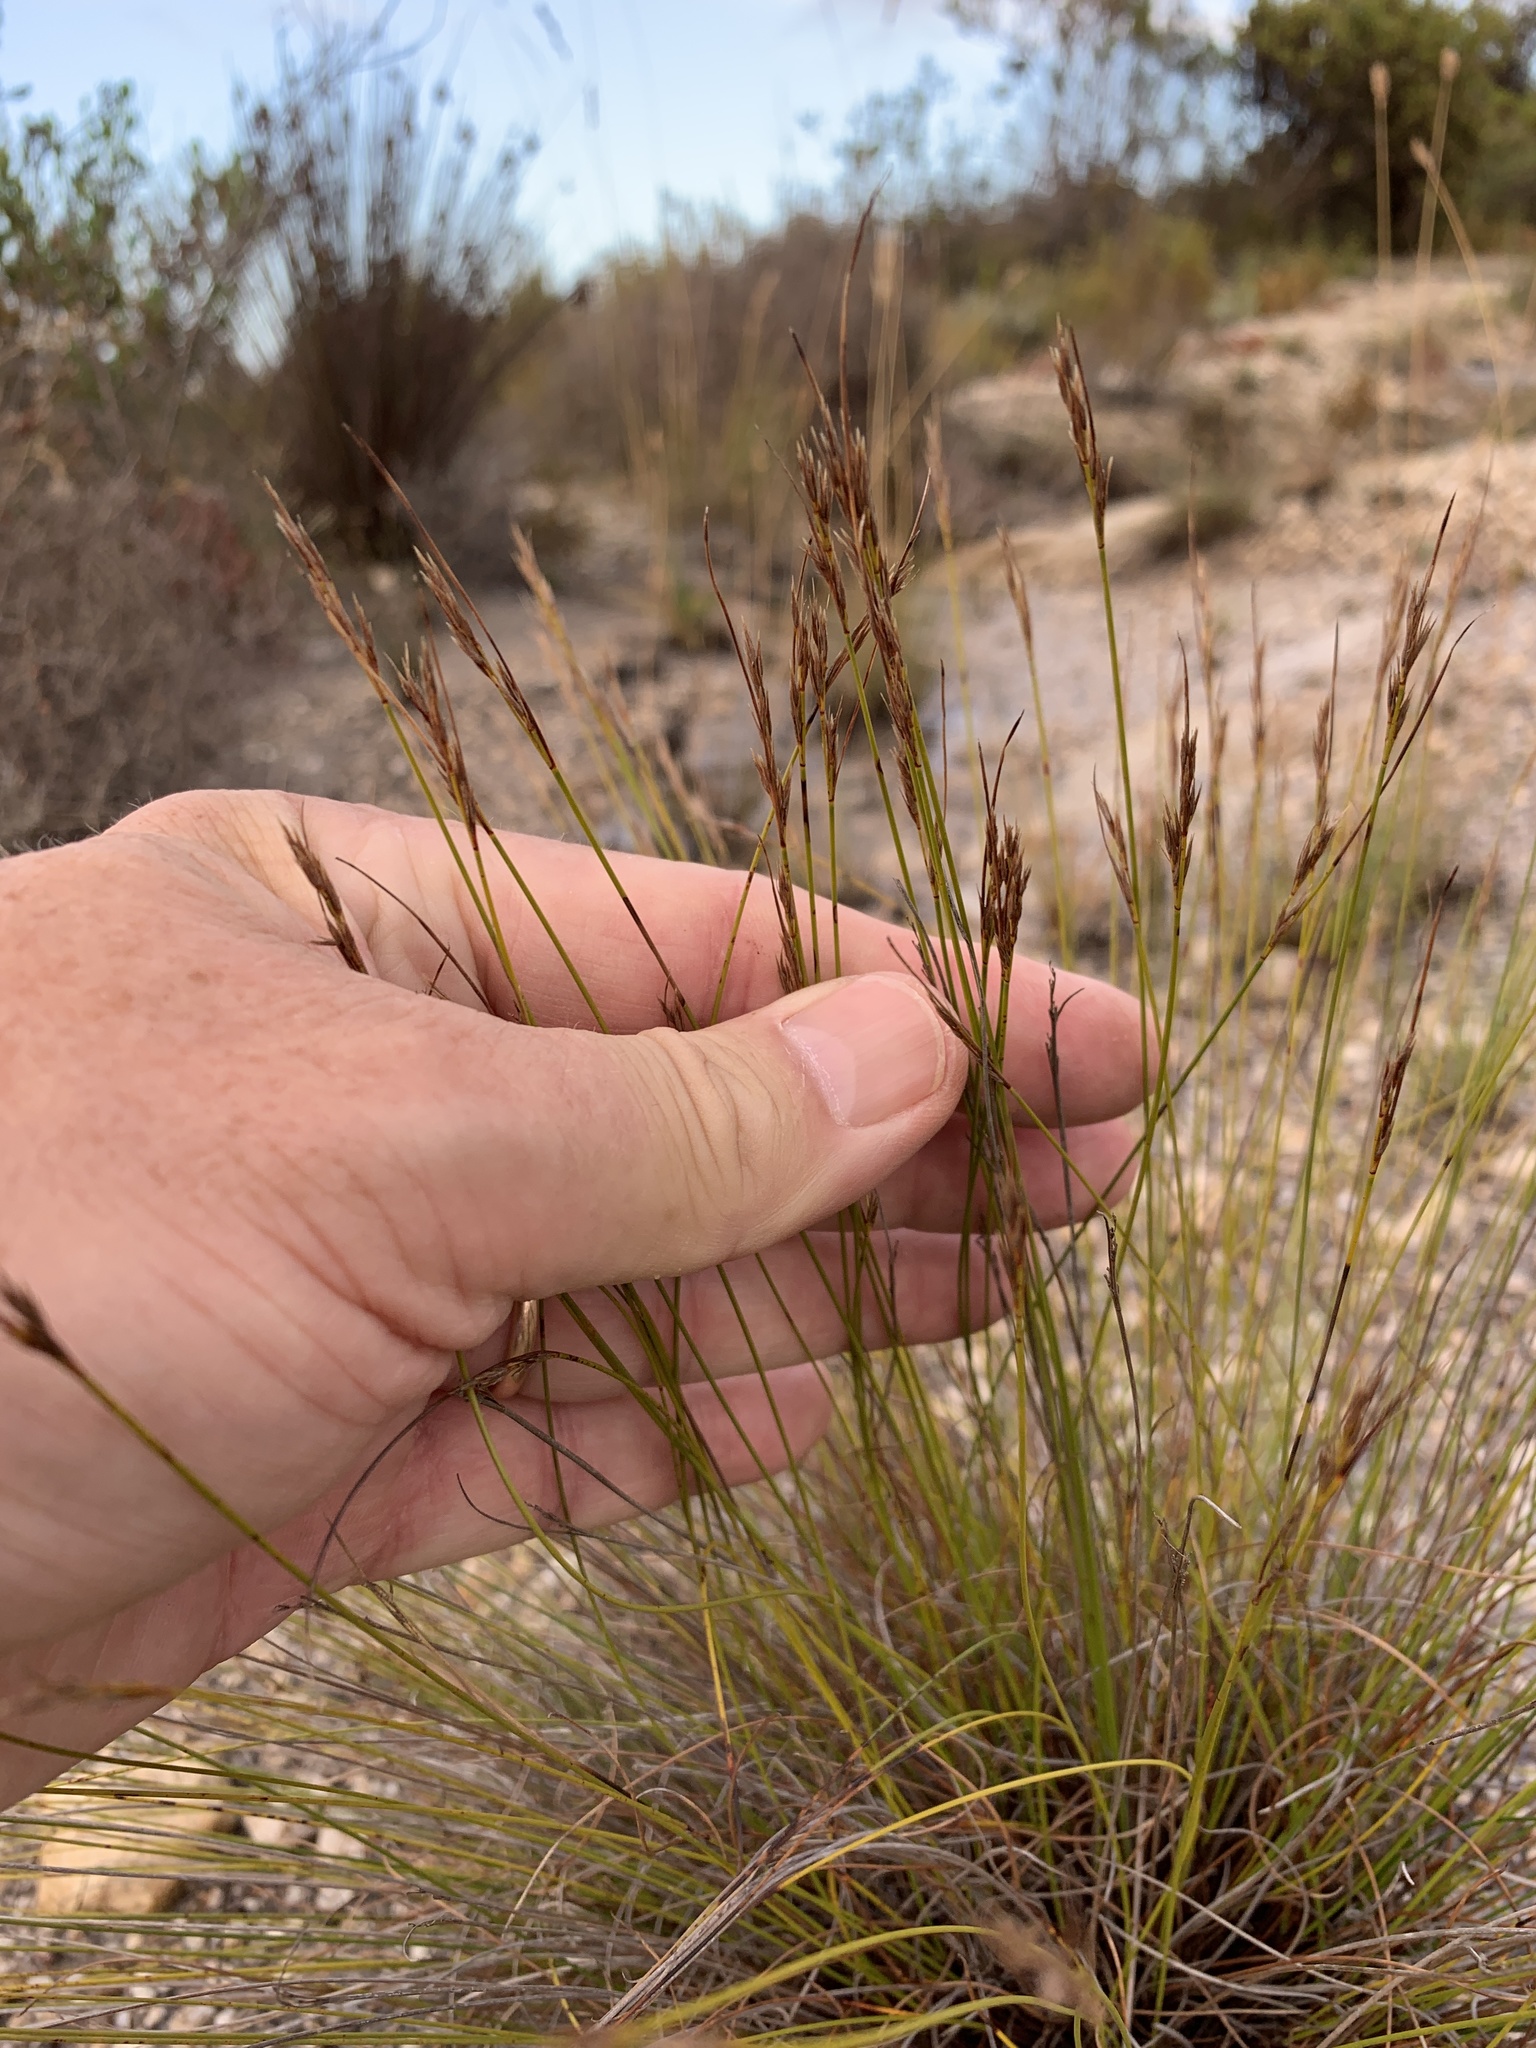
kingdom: Plantae
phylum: Tracheophyta
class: Liliopsida
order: Poales
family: Cyperaceae
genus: Schoenus
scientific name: Schoenus ligulatus
